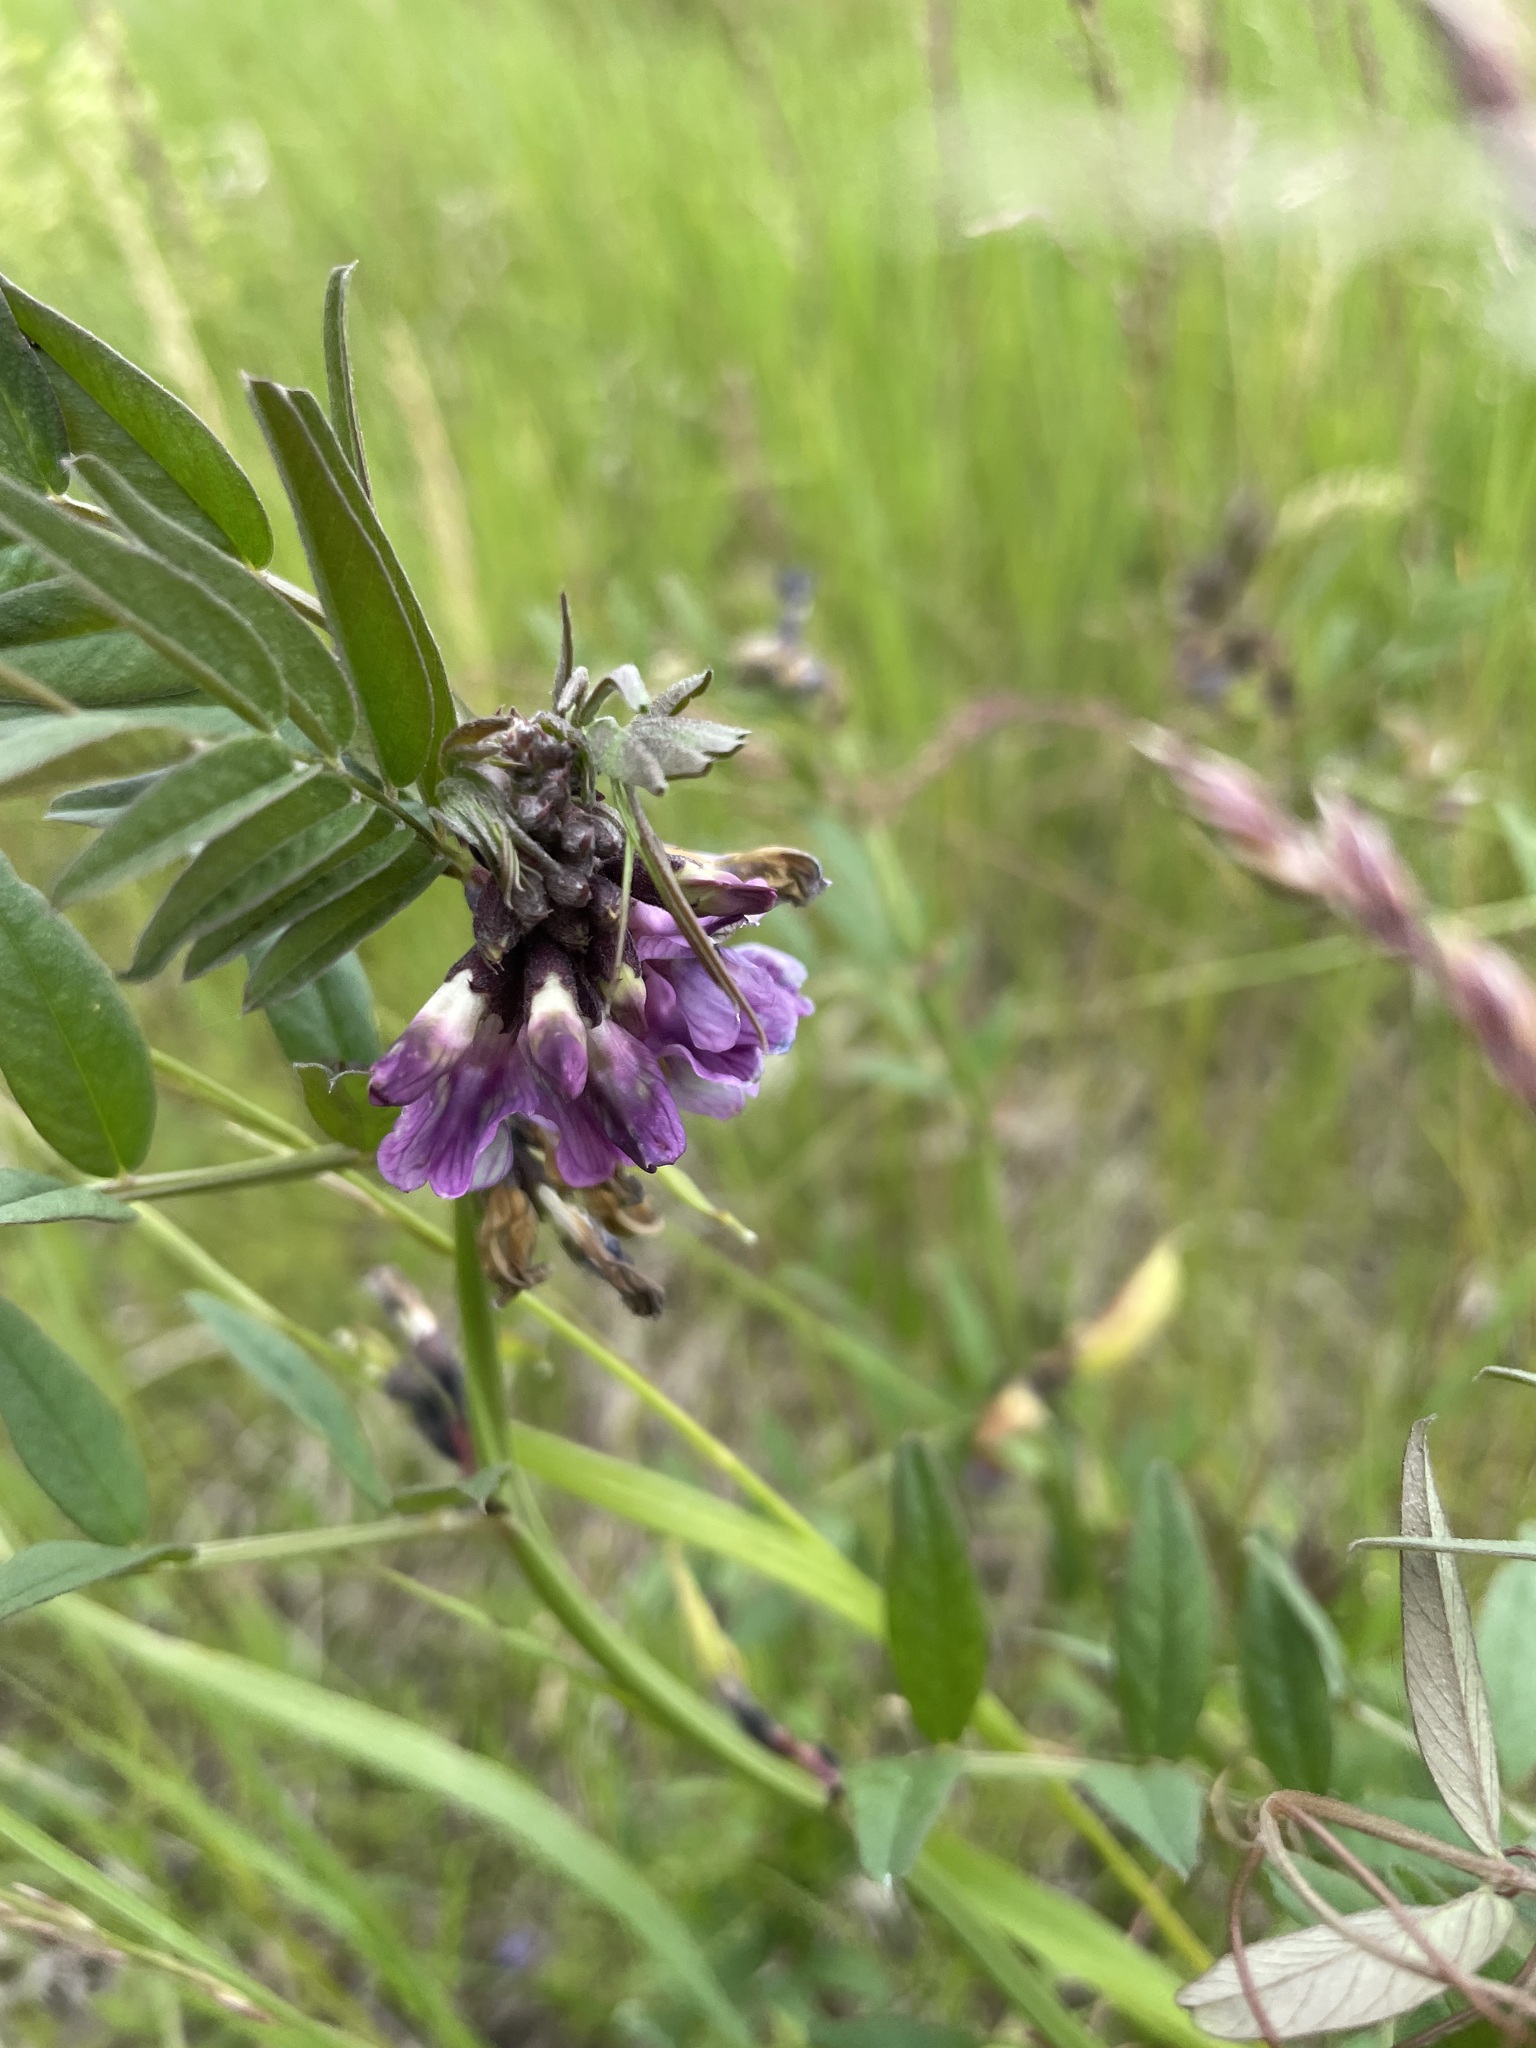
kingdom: Plantae
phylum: Tracheophyta
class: Magnoliopsida
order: Fabales
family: Fabaceae
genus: Vicia
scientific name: Vicia sepium
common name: Bush vetch
